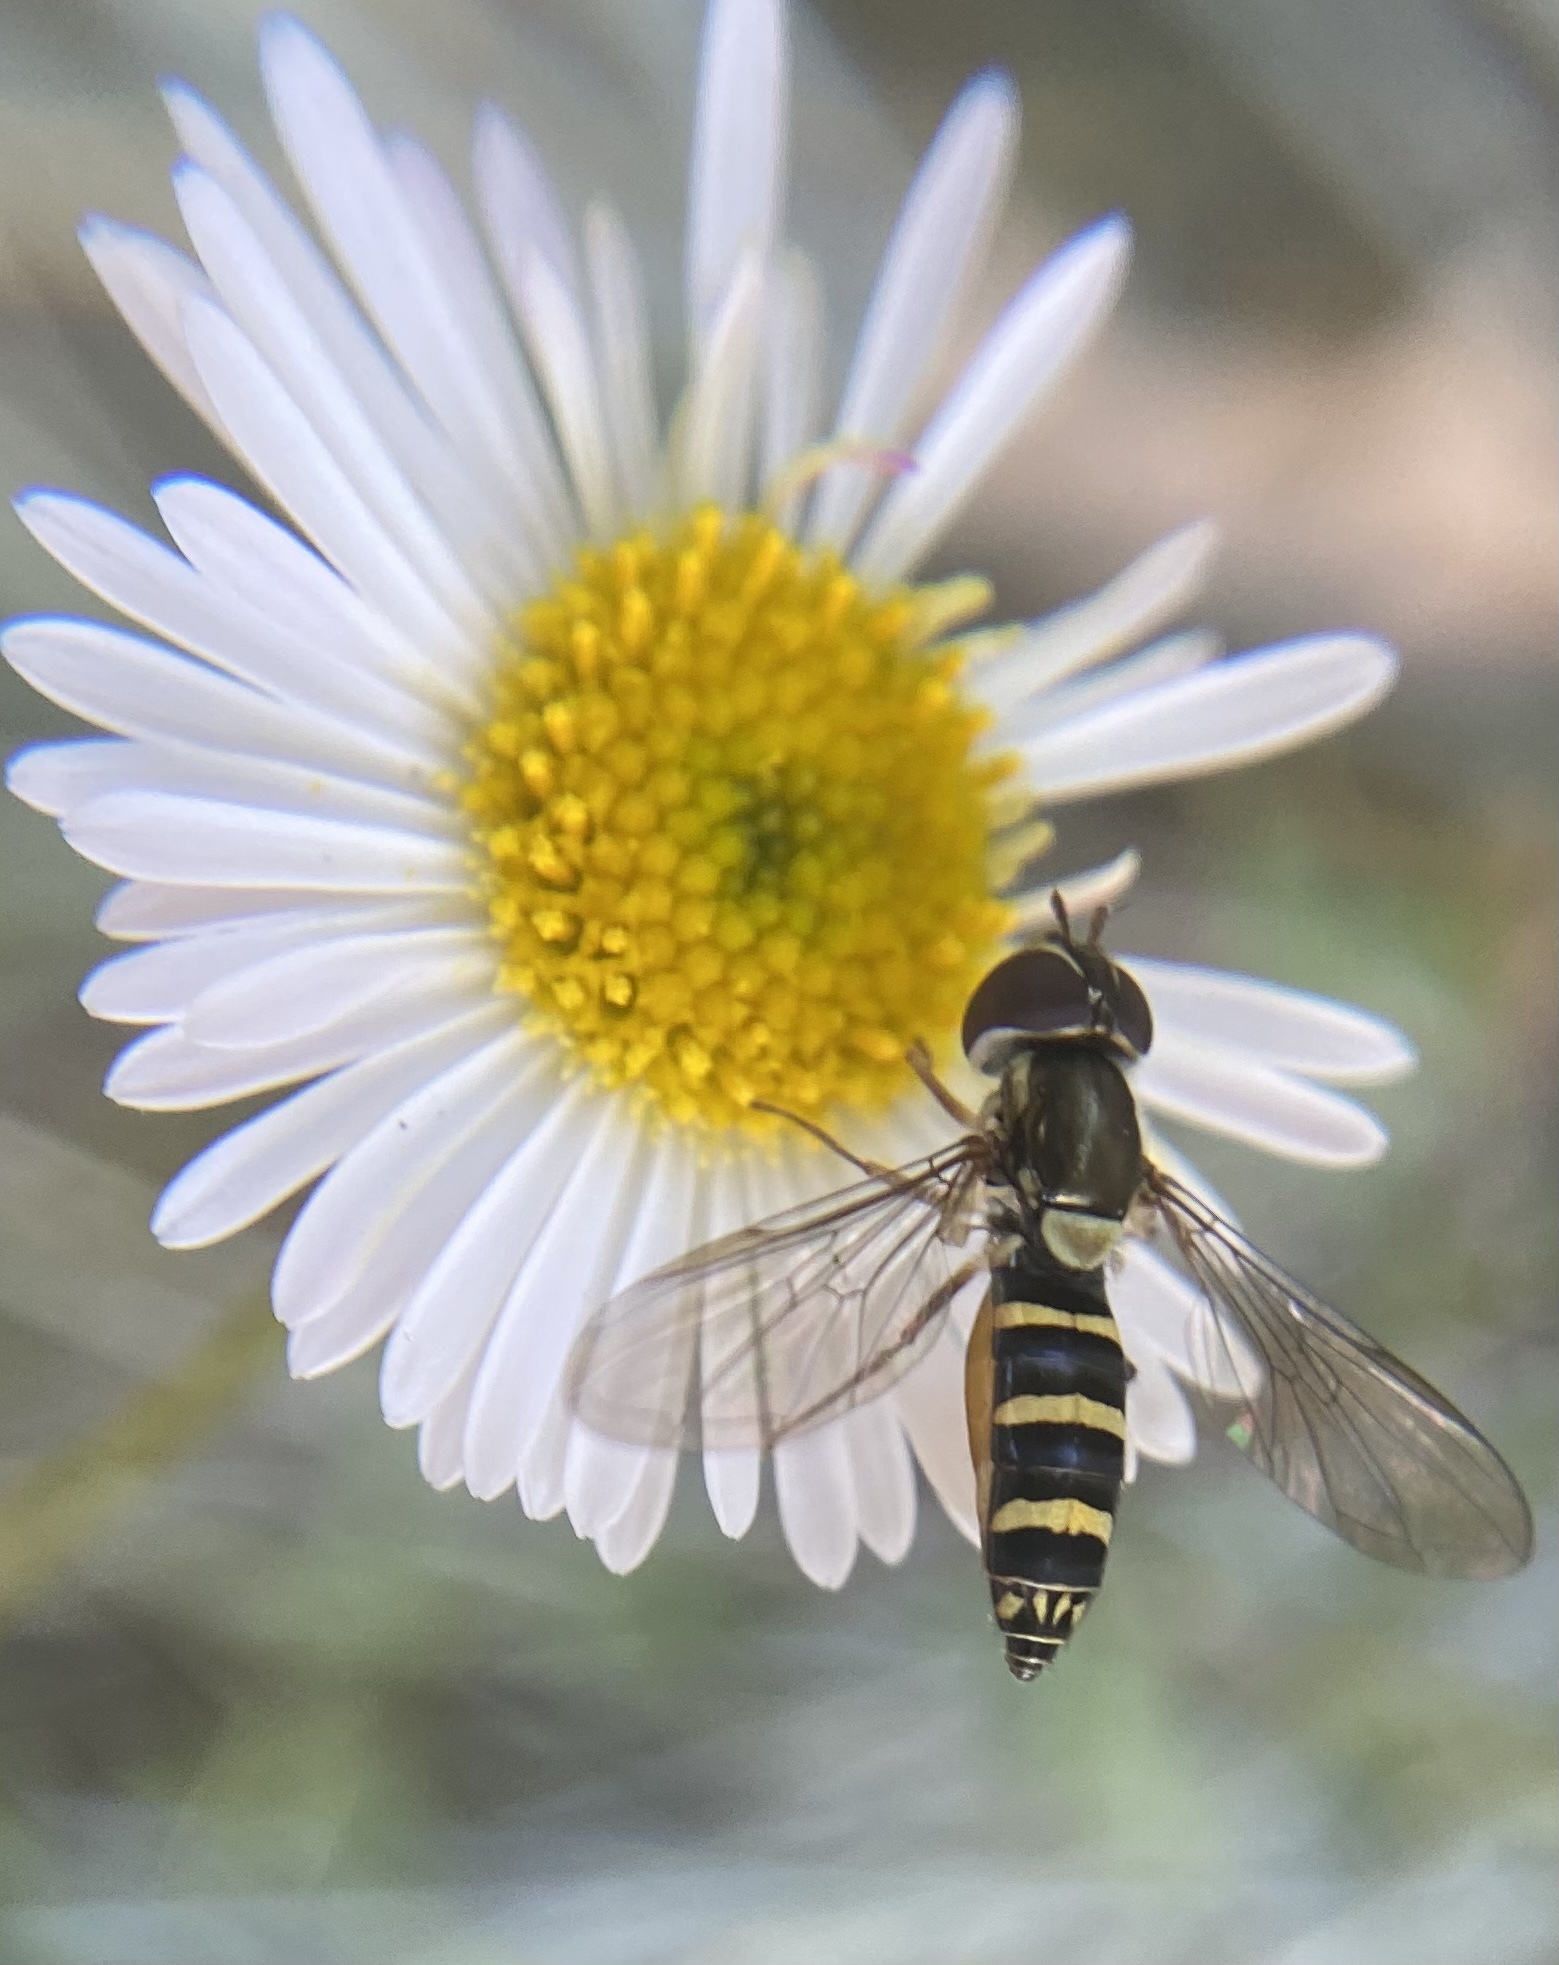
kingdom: Animalia
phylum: Arthropoda
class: Insecta
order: Diptera
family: Syrphidae
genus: Fazia
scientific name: Fazia micrura
